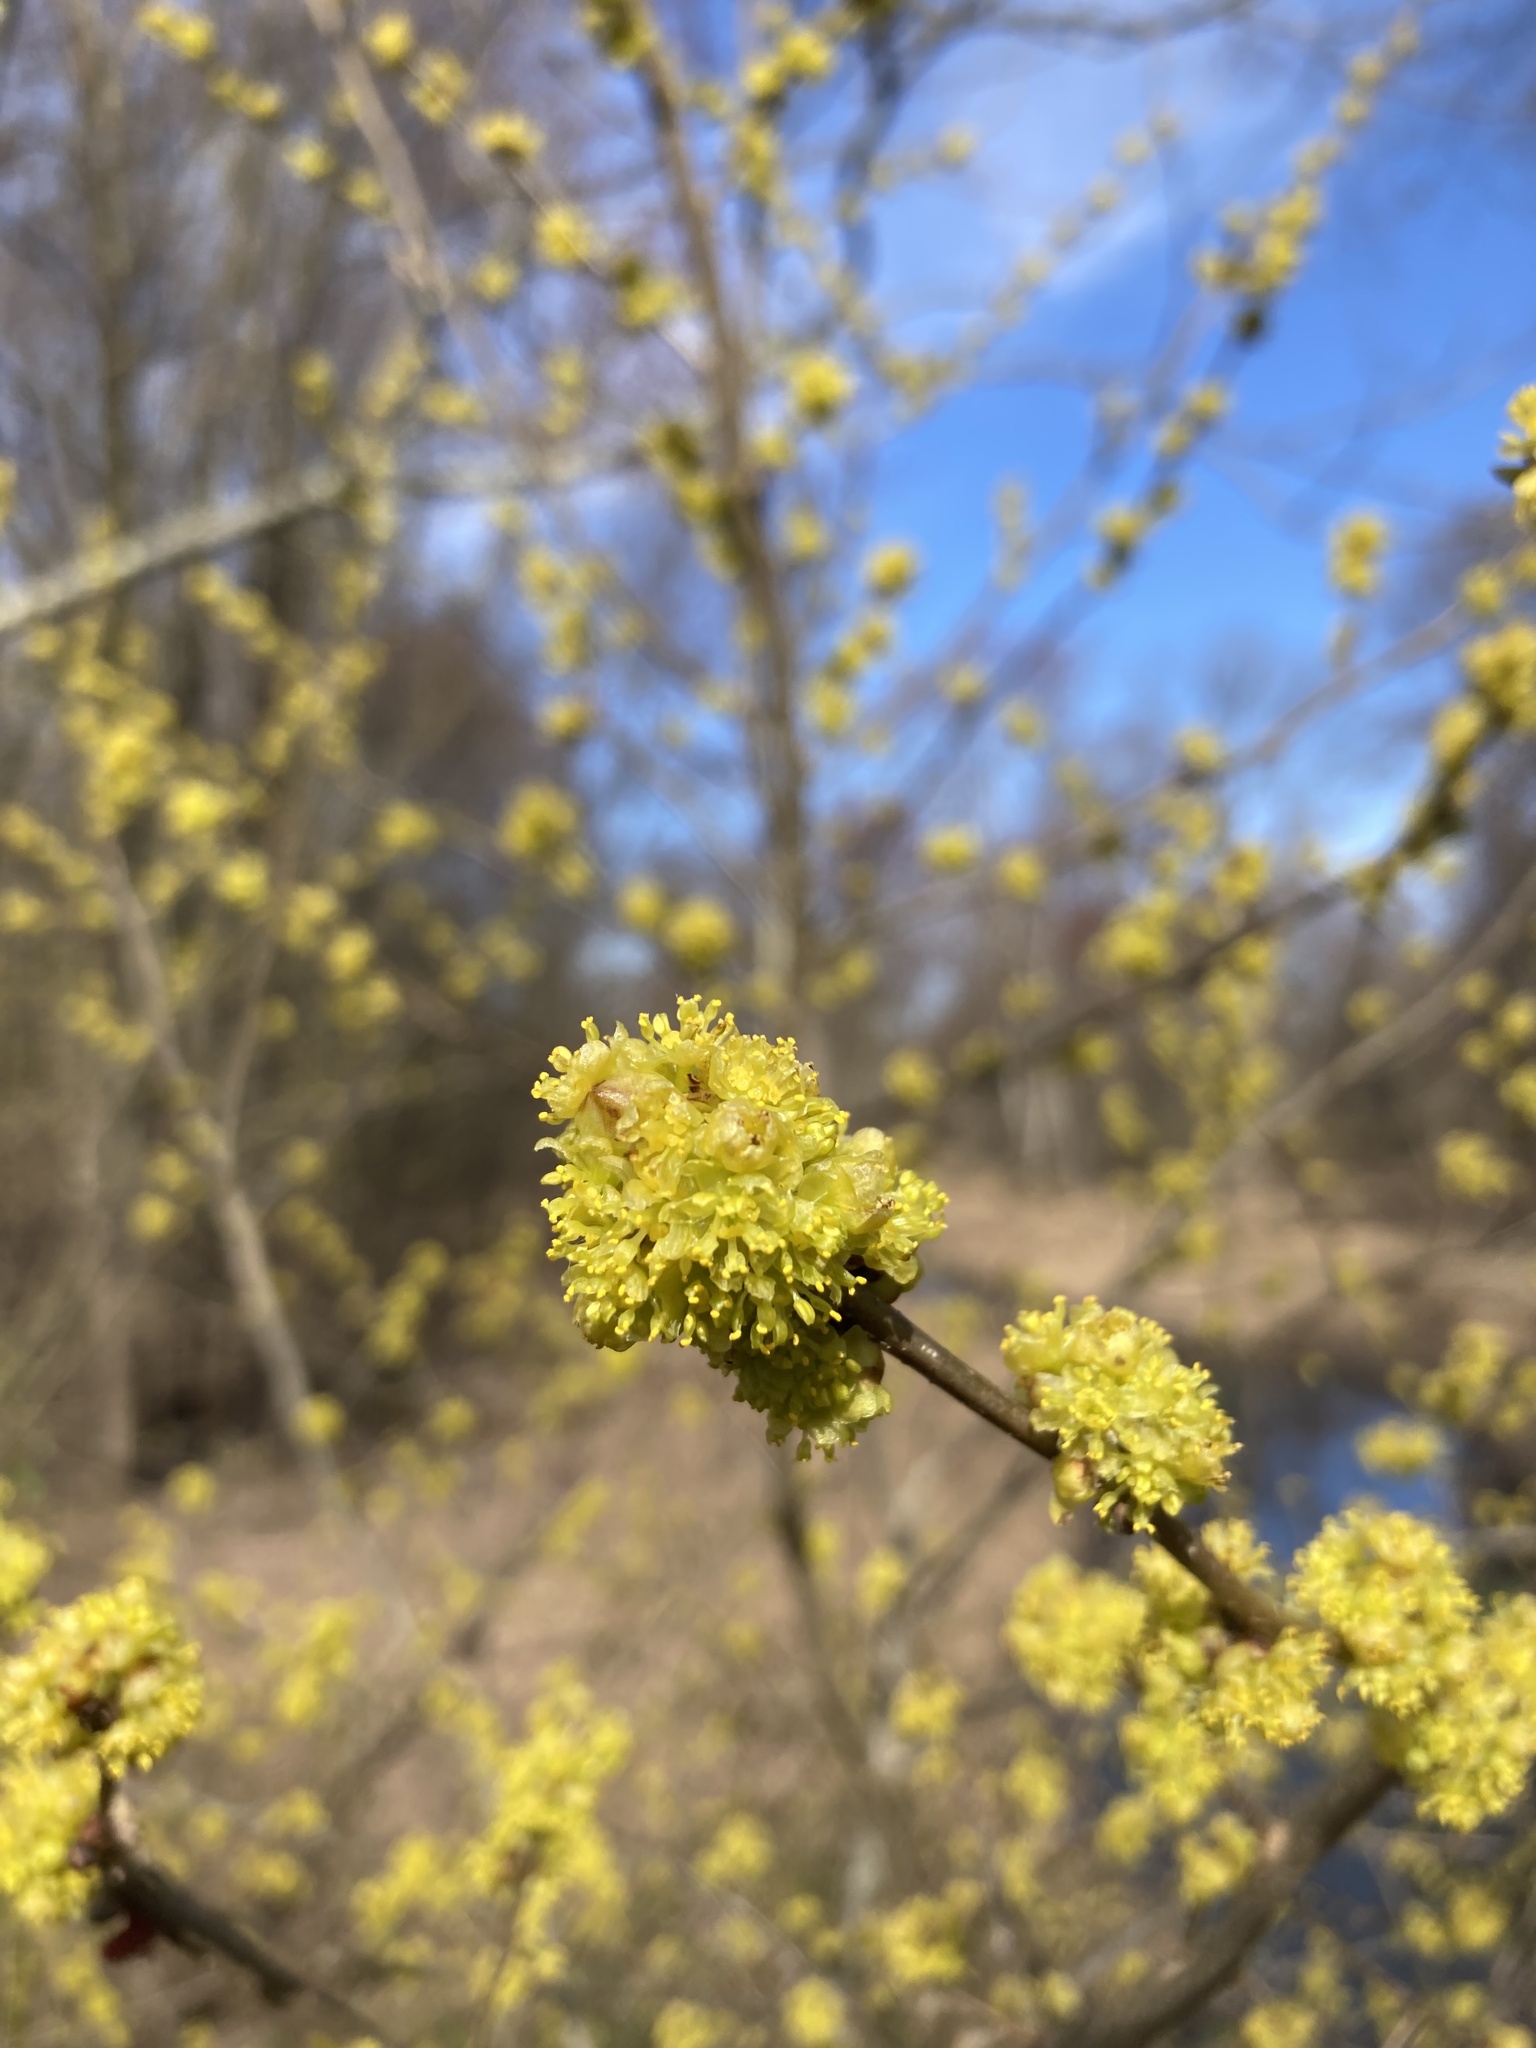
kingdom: Plantae
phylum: Tracheophyta
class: Magnoliopsida
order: Laurales
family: Lauraceae
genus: Lindera
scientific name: Lindera benzoin
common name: Spicebush
